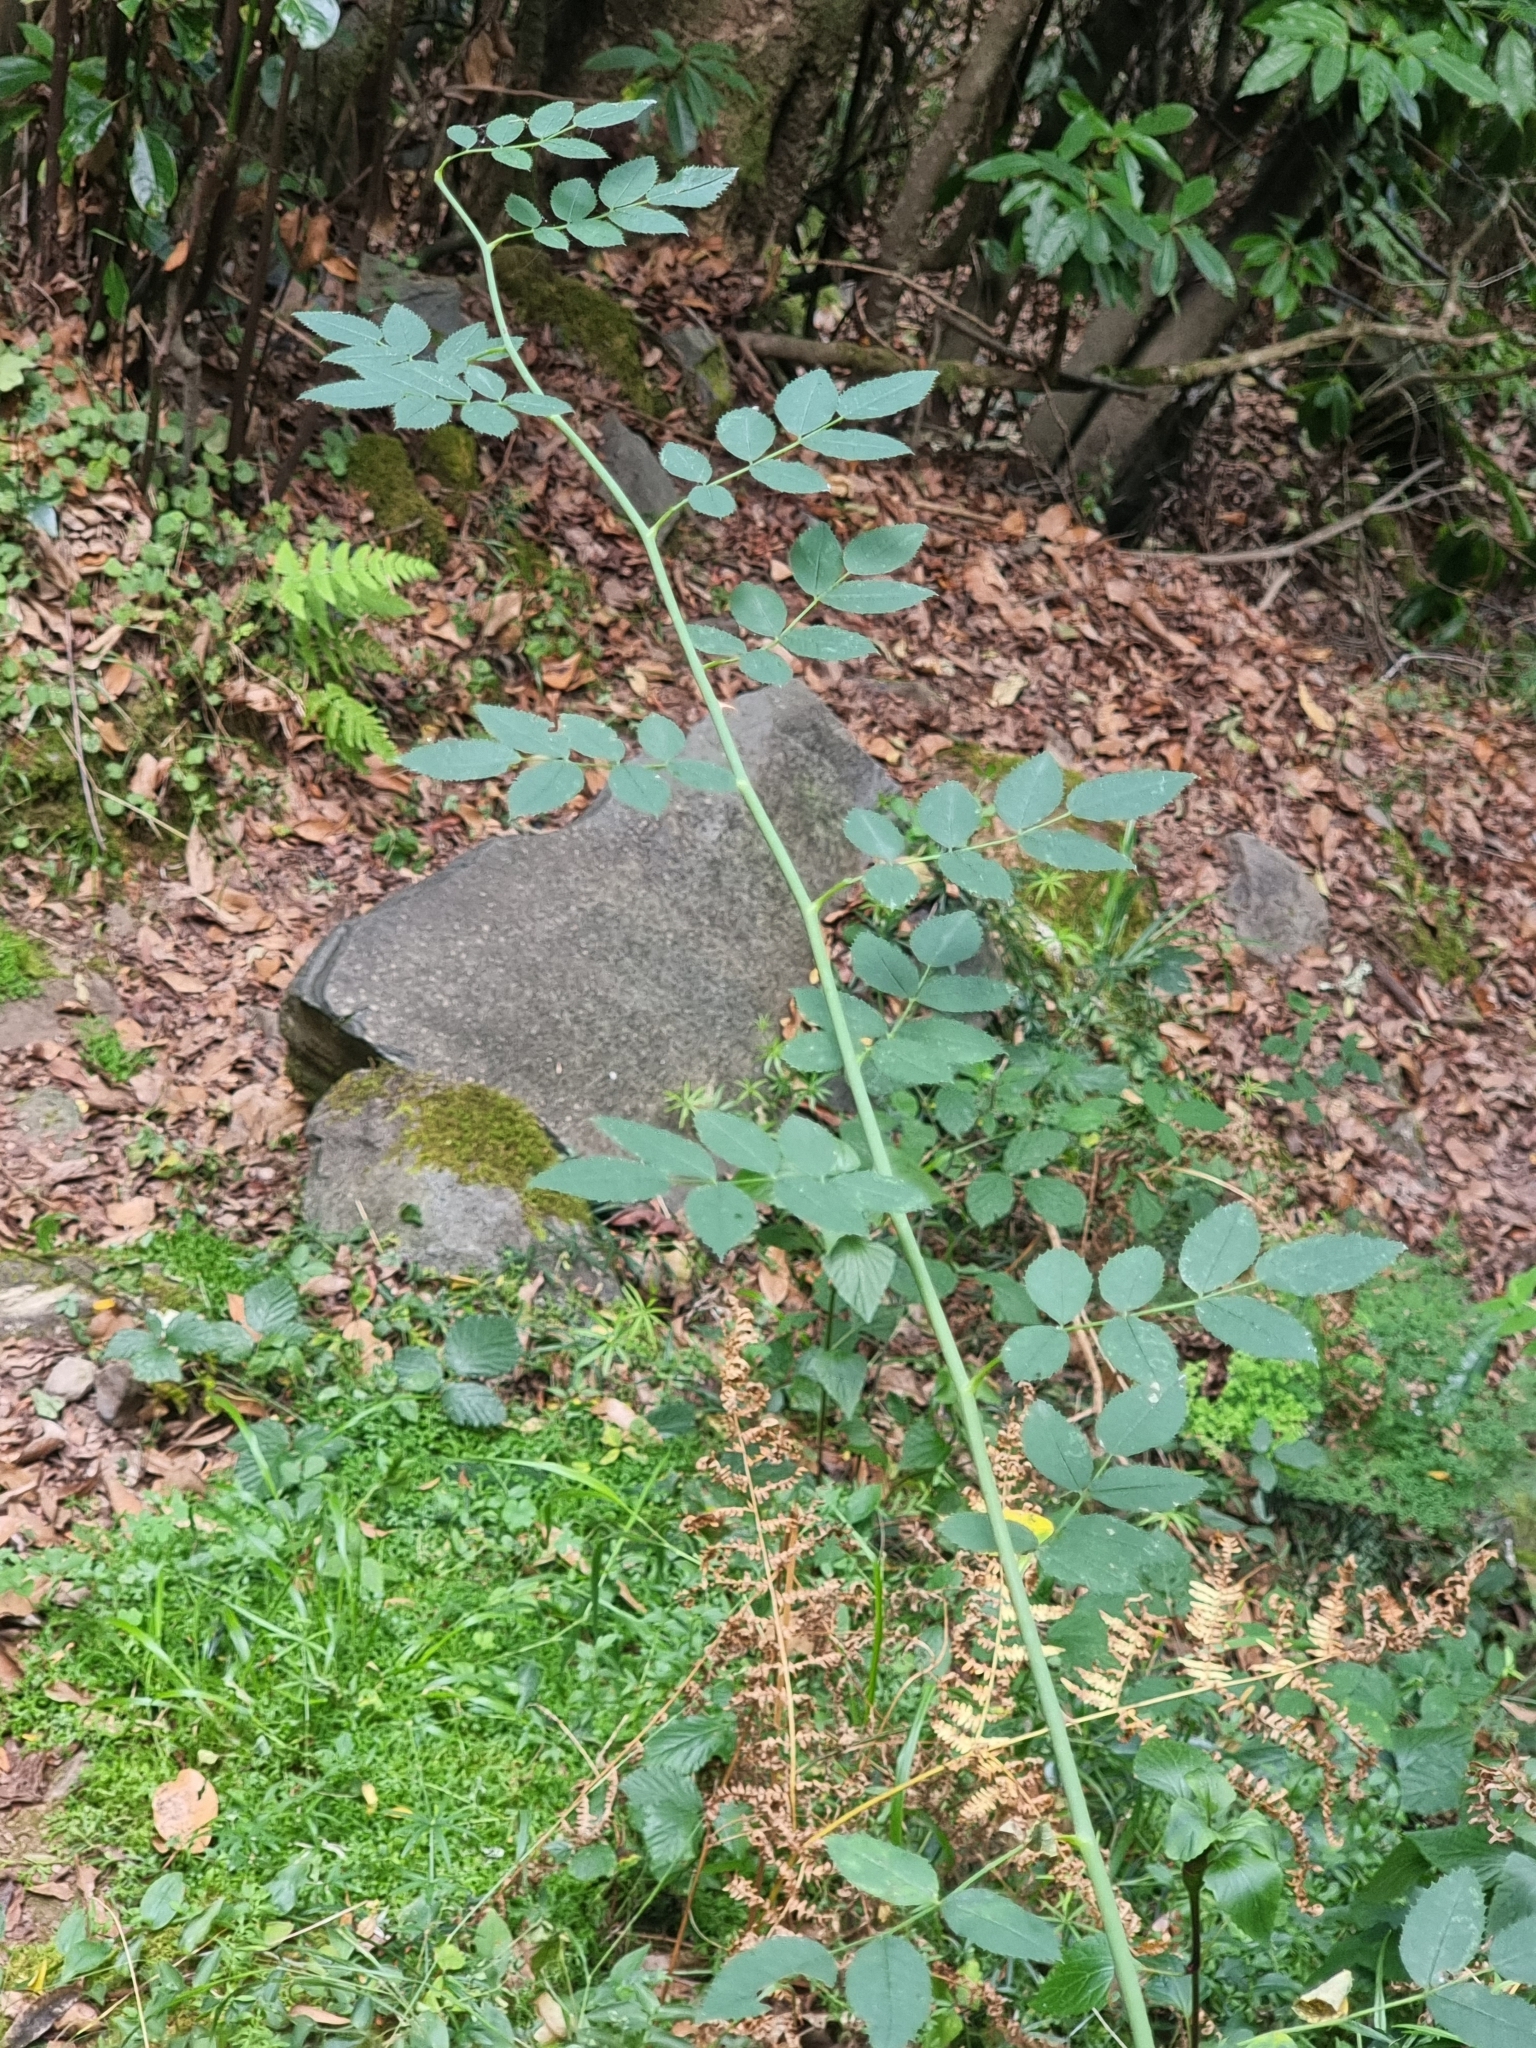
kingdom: Plantae
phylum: Tracheophyta
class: Magnoliopsida
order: Rosales
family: Rosaceae
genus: Rosa
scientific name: Rosa canina
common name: Dog rose
